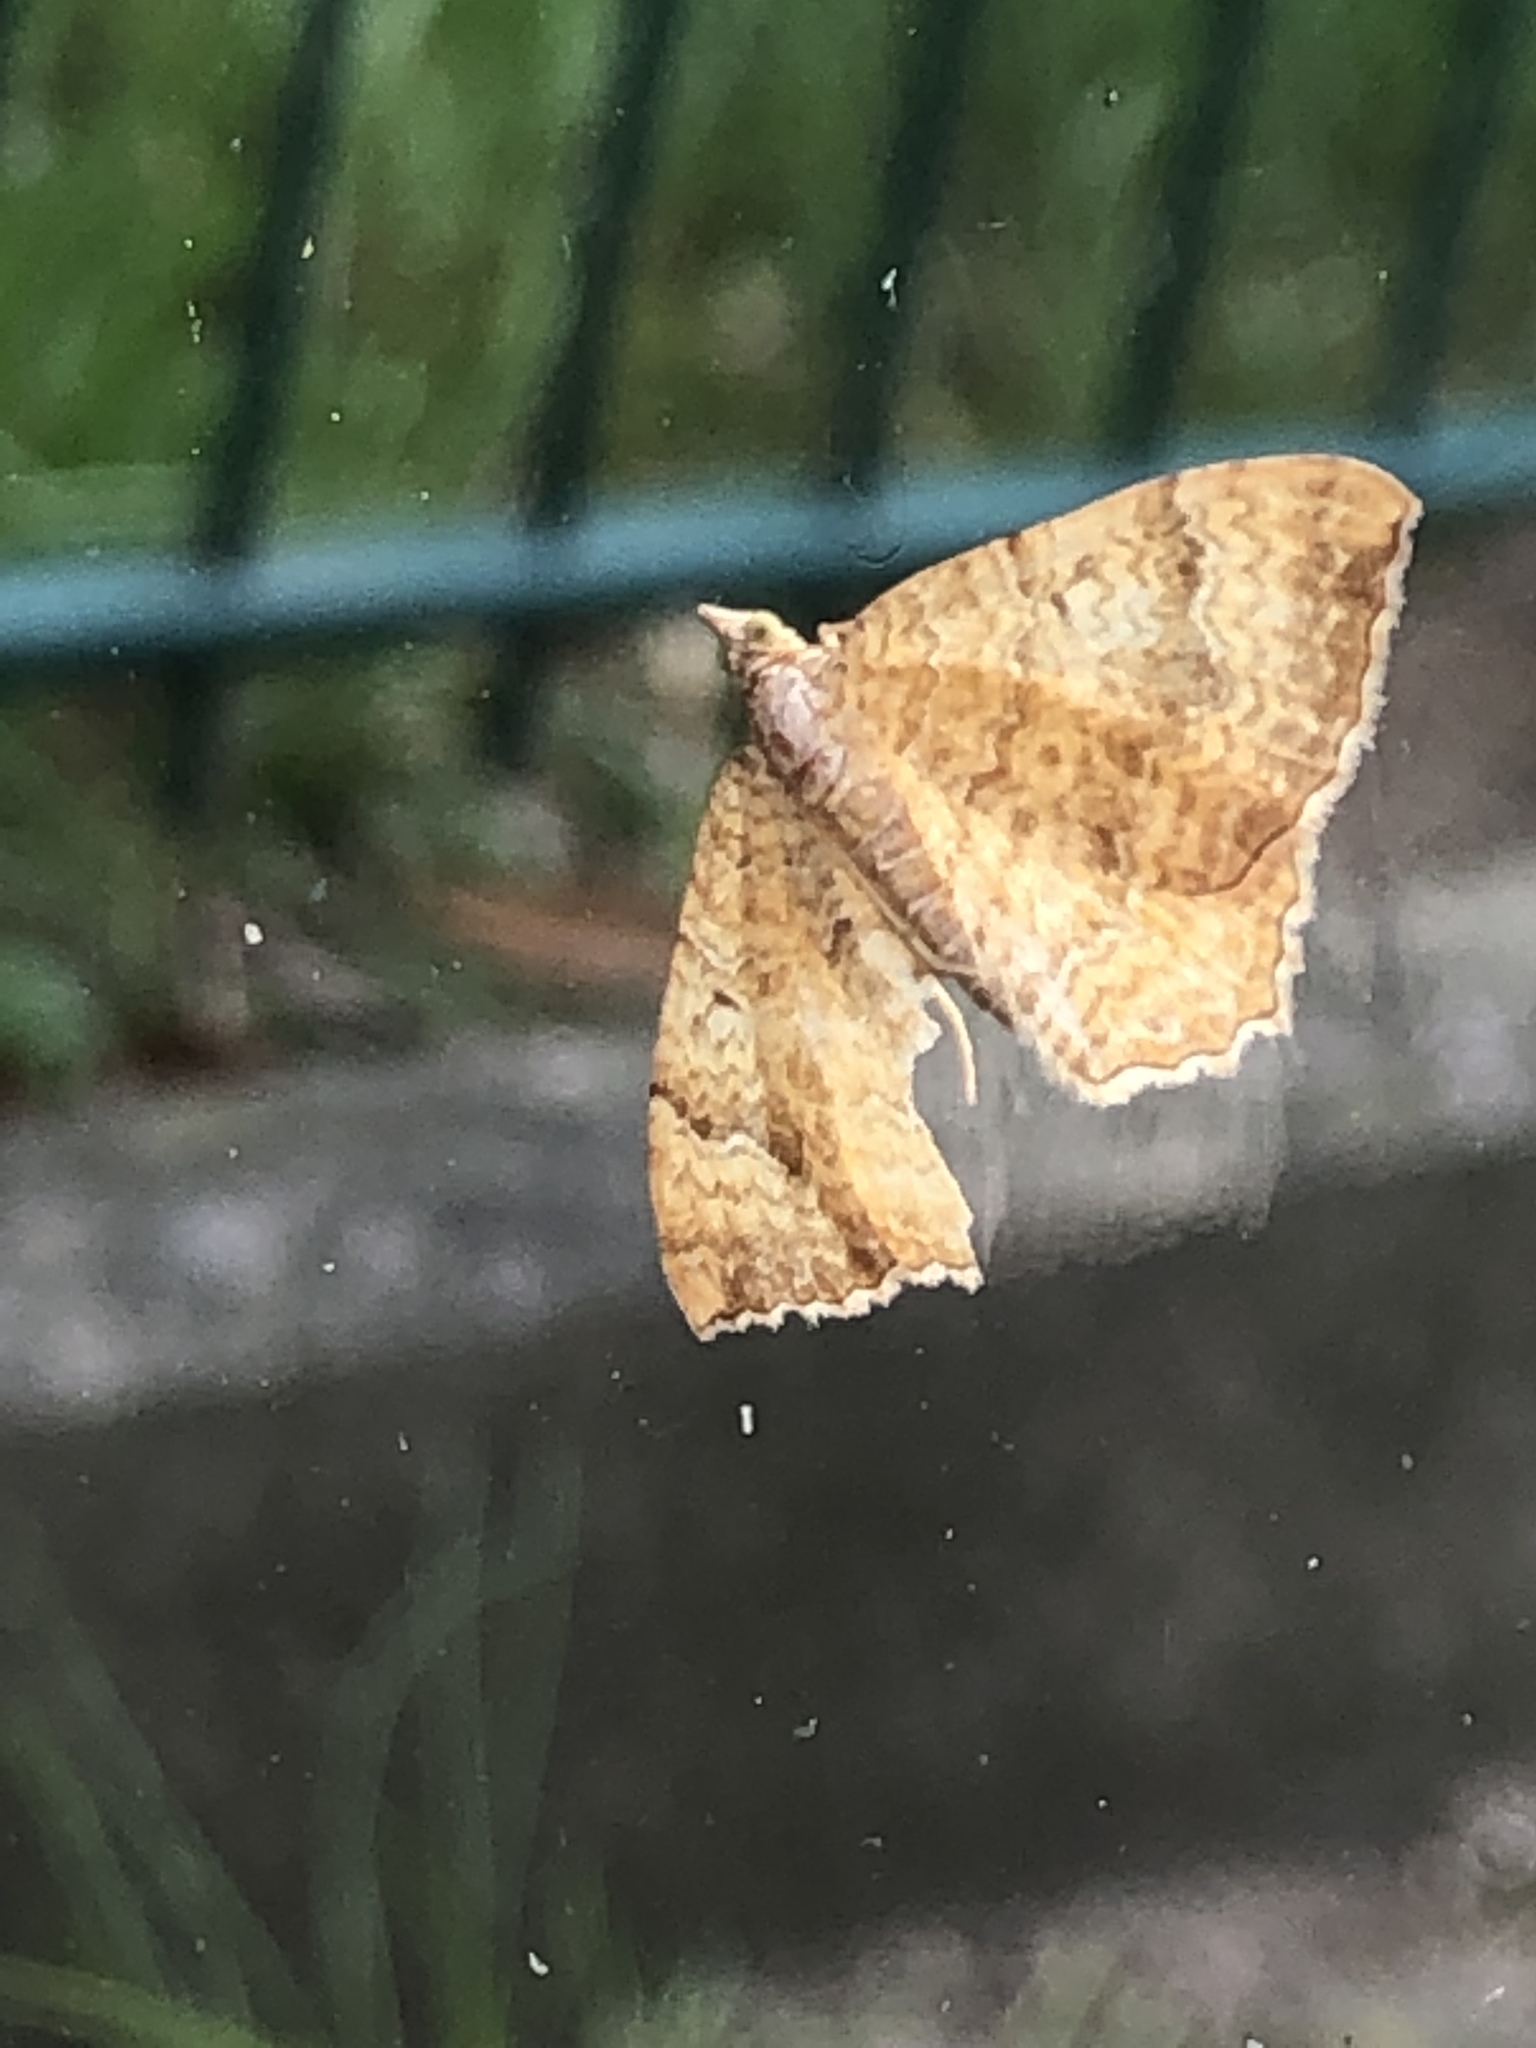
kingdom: Animalia
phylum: Arthropoda
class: Insecta
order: Lepidoptera
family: Geometridae
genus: Camptogramma
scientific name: Camptogramma bilineata
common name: Yellow shell
